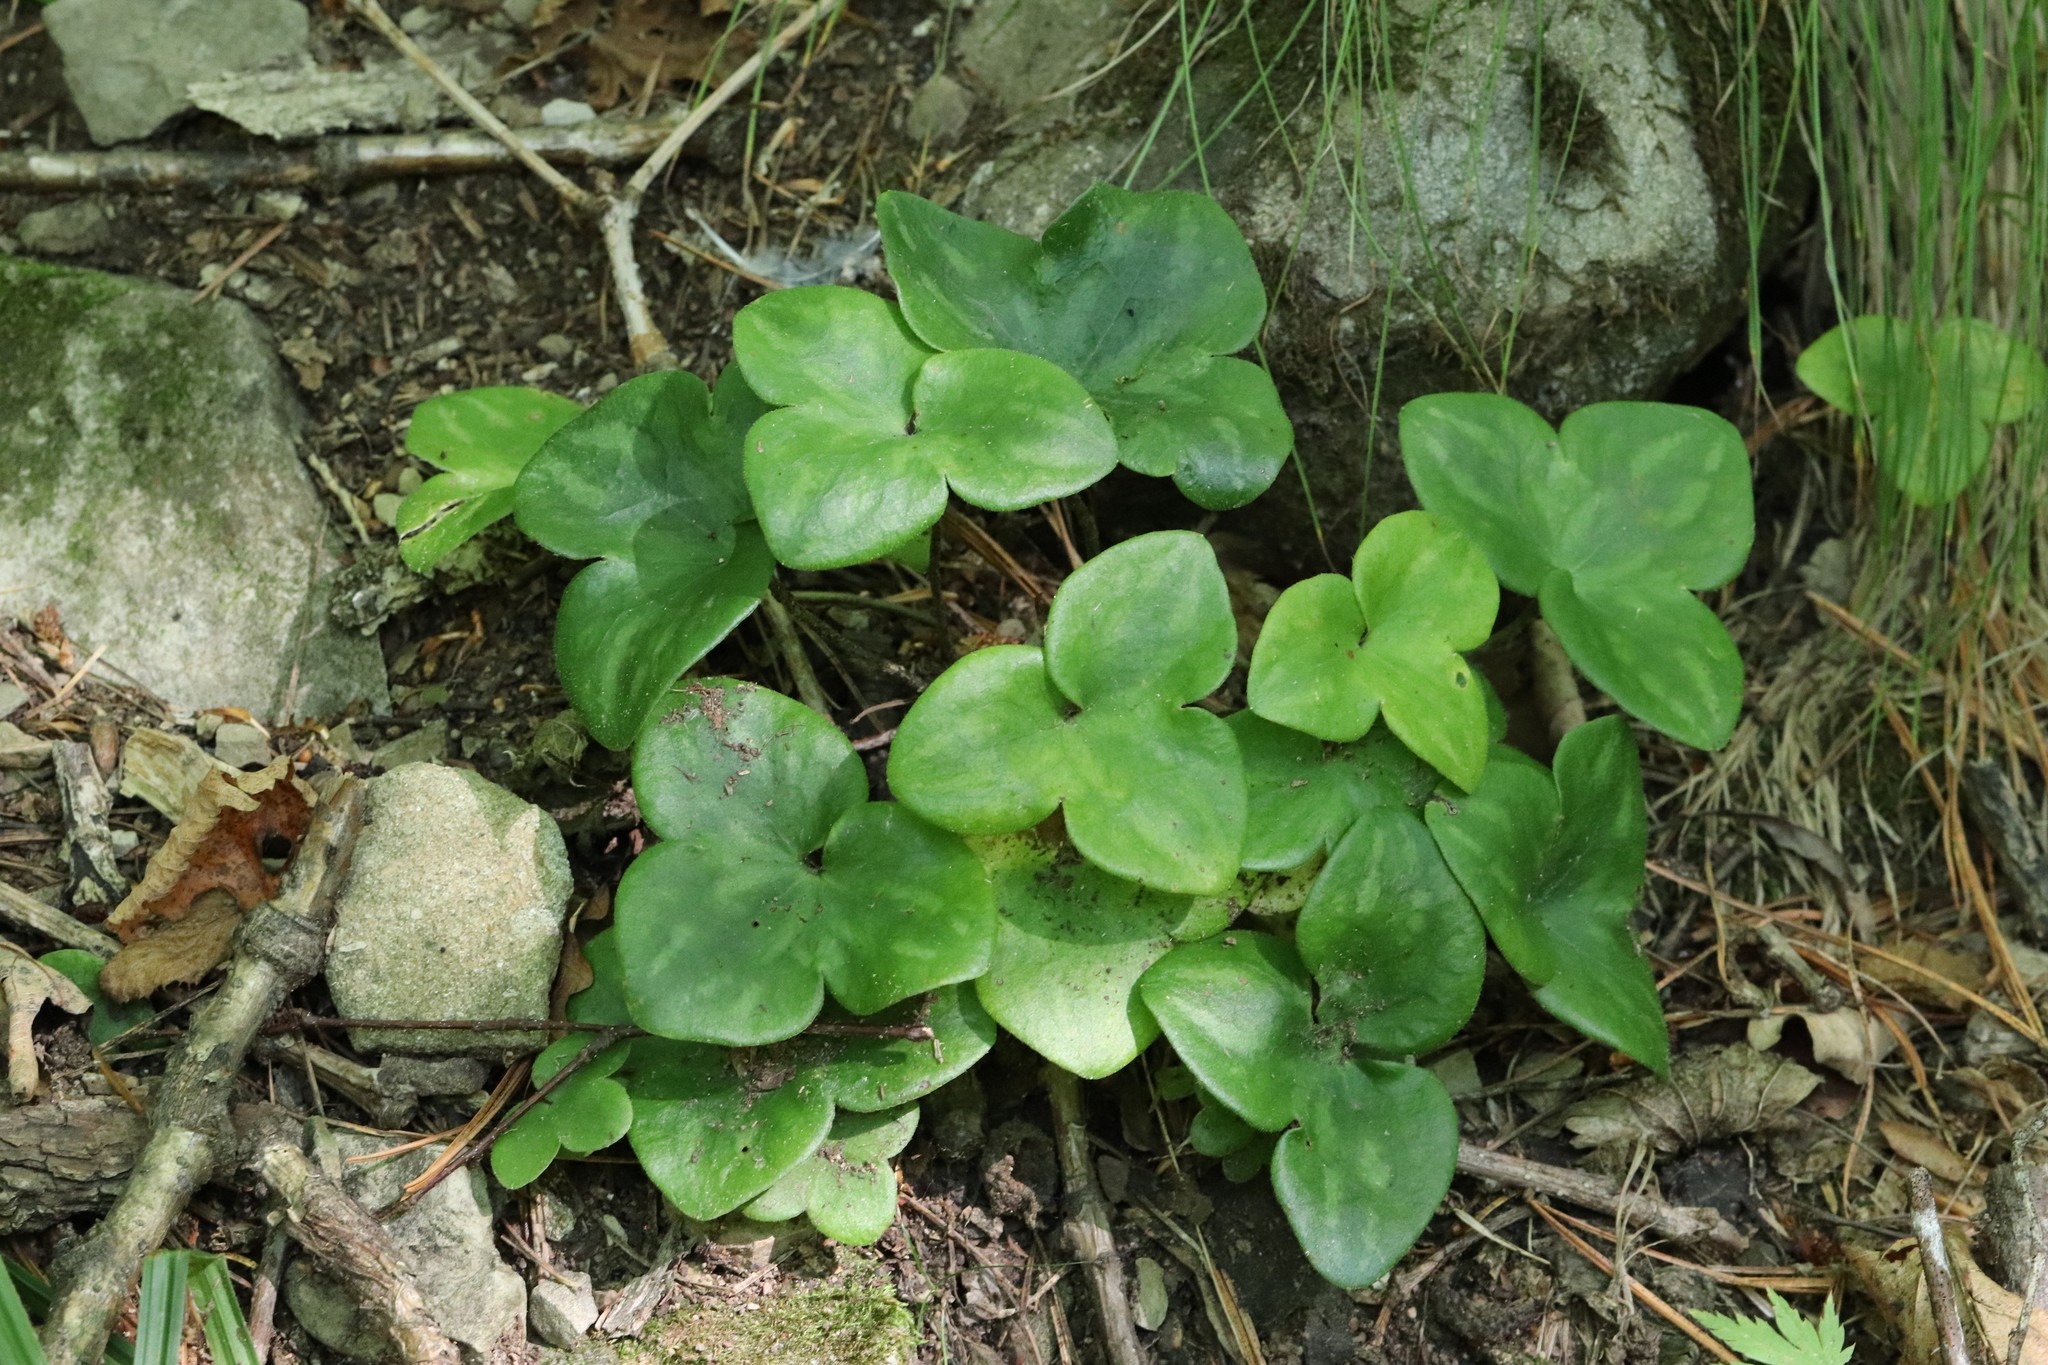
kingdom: Plantae
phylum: Tracheophyta
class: Magnoliopsida
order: Ranunculales
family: Ranunculaceae
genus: Hepatica
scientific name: Hepatica asiatica
